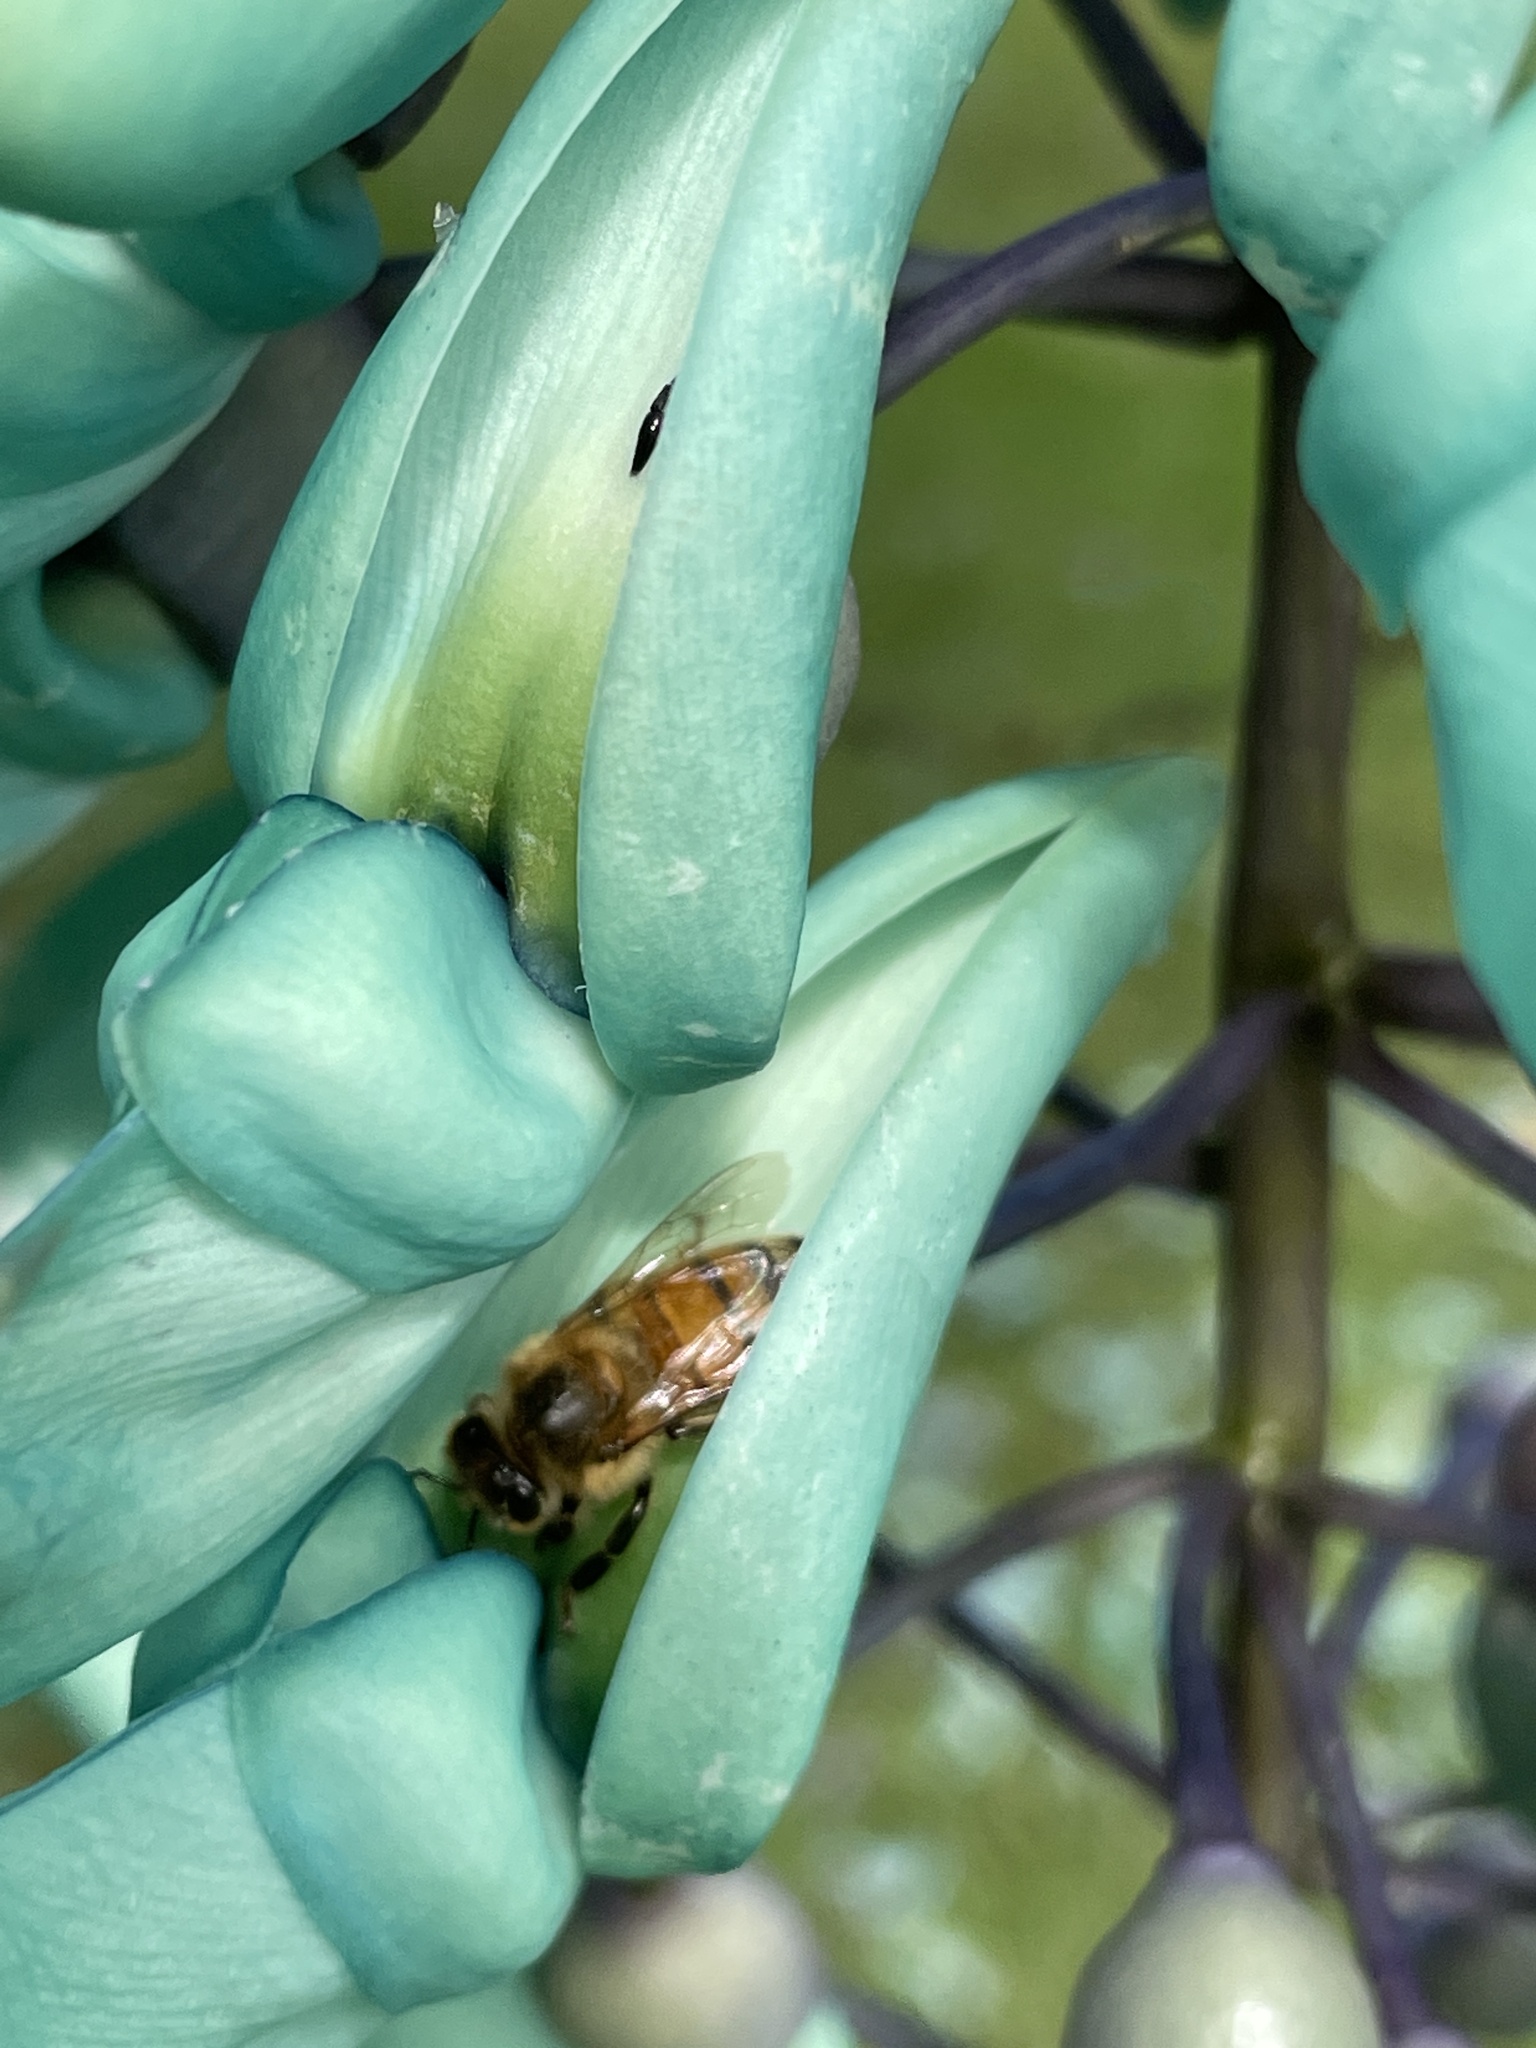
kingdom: Animalia
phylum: Arthropoda
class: Insecta
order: Hymenoptera
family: Apidae
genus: Apis
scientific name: Apis mellifera
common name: Honey bee
